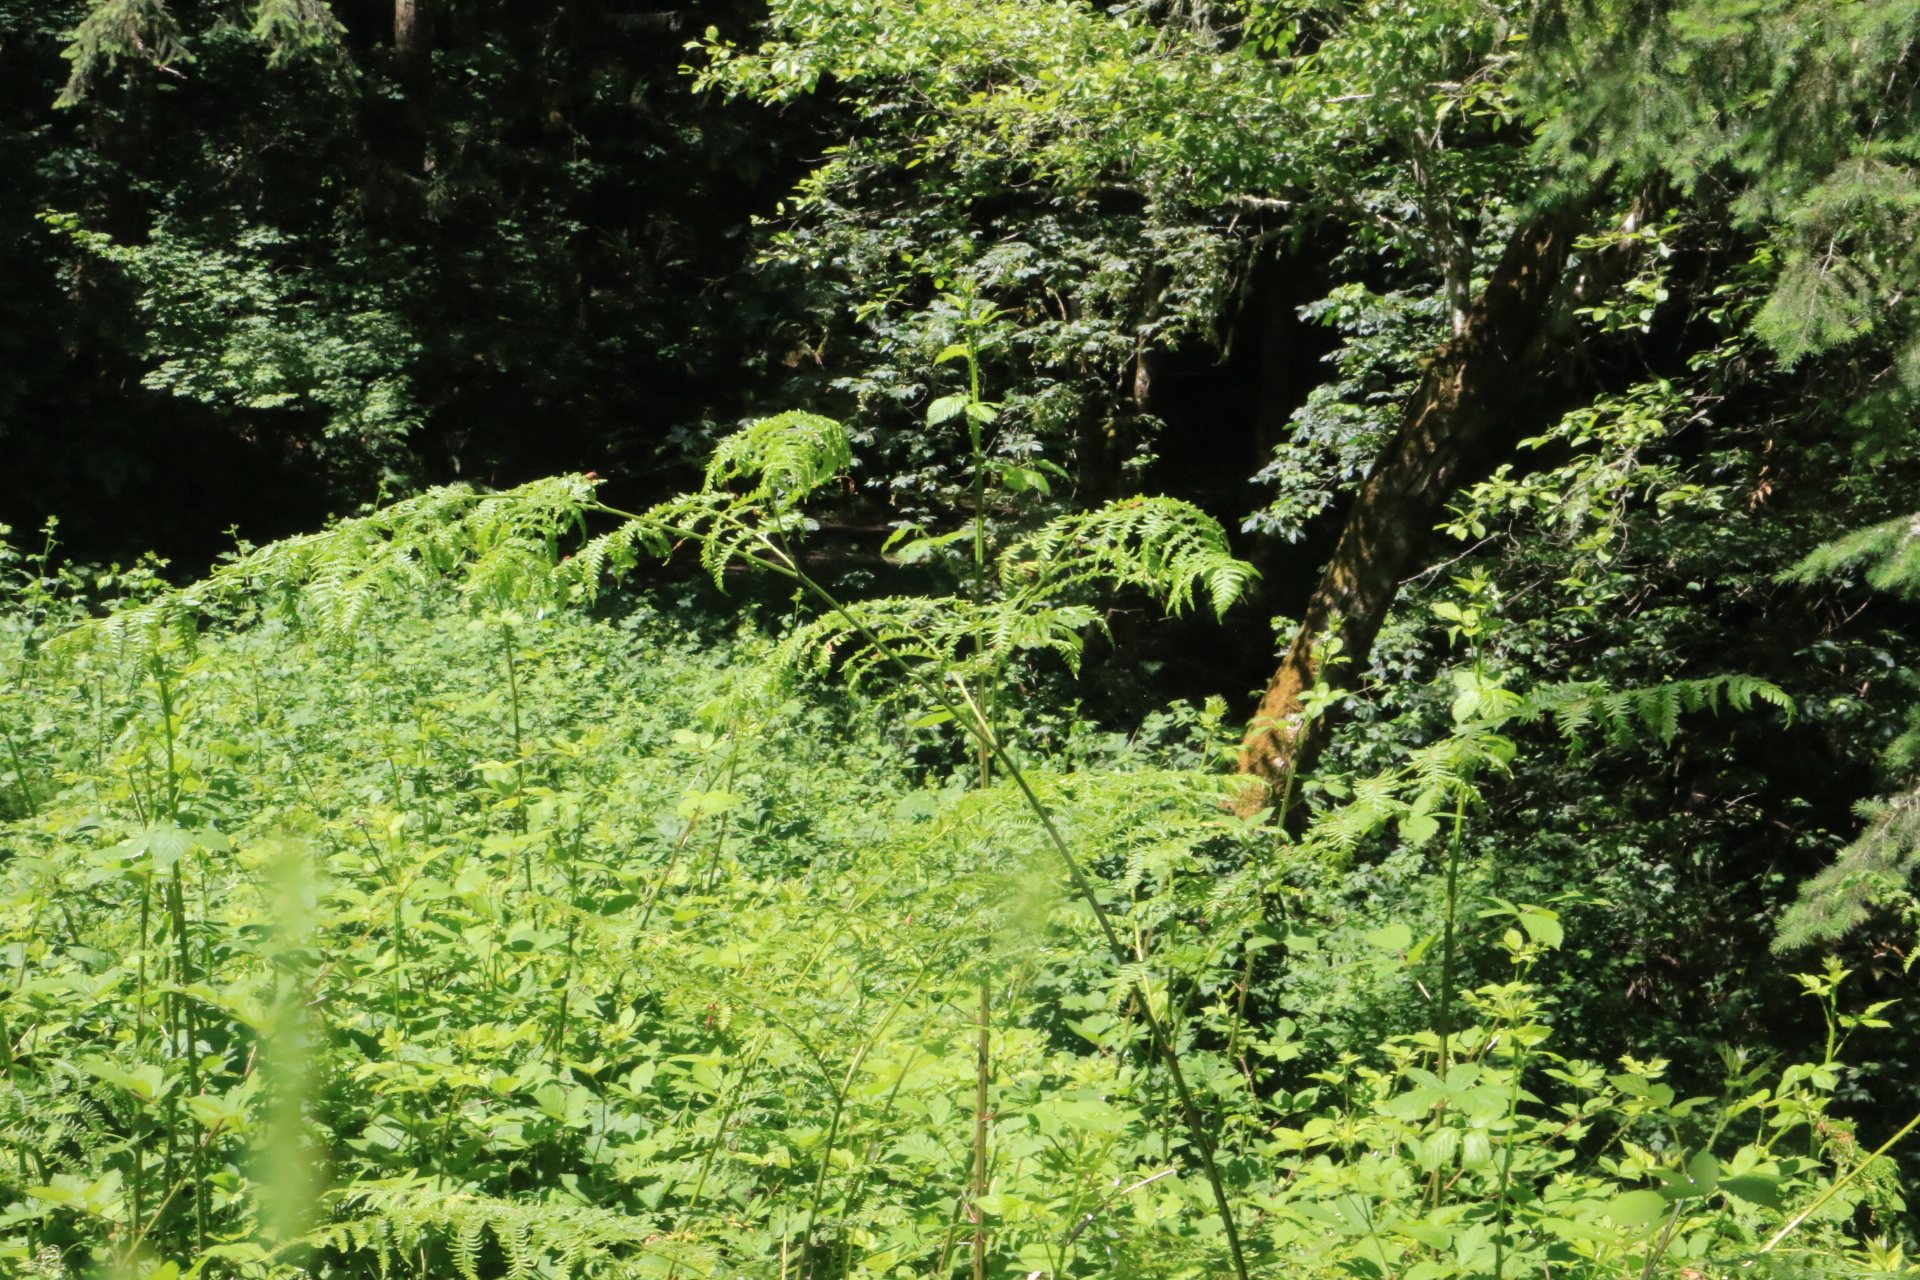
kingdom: Plantae
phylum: Tracheophyta
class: Polypodiopsida
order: Polypodiales
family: Dennstaedtiaceae
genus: Pteridium
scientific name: Pteridium aquilinum
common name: Bracken
